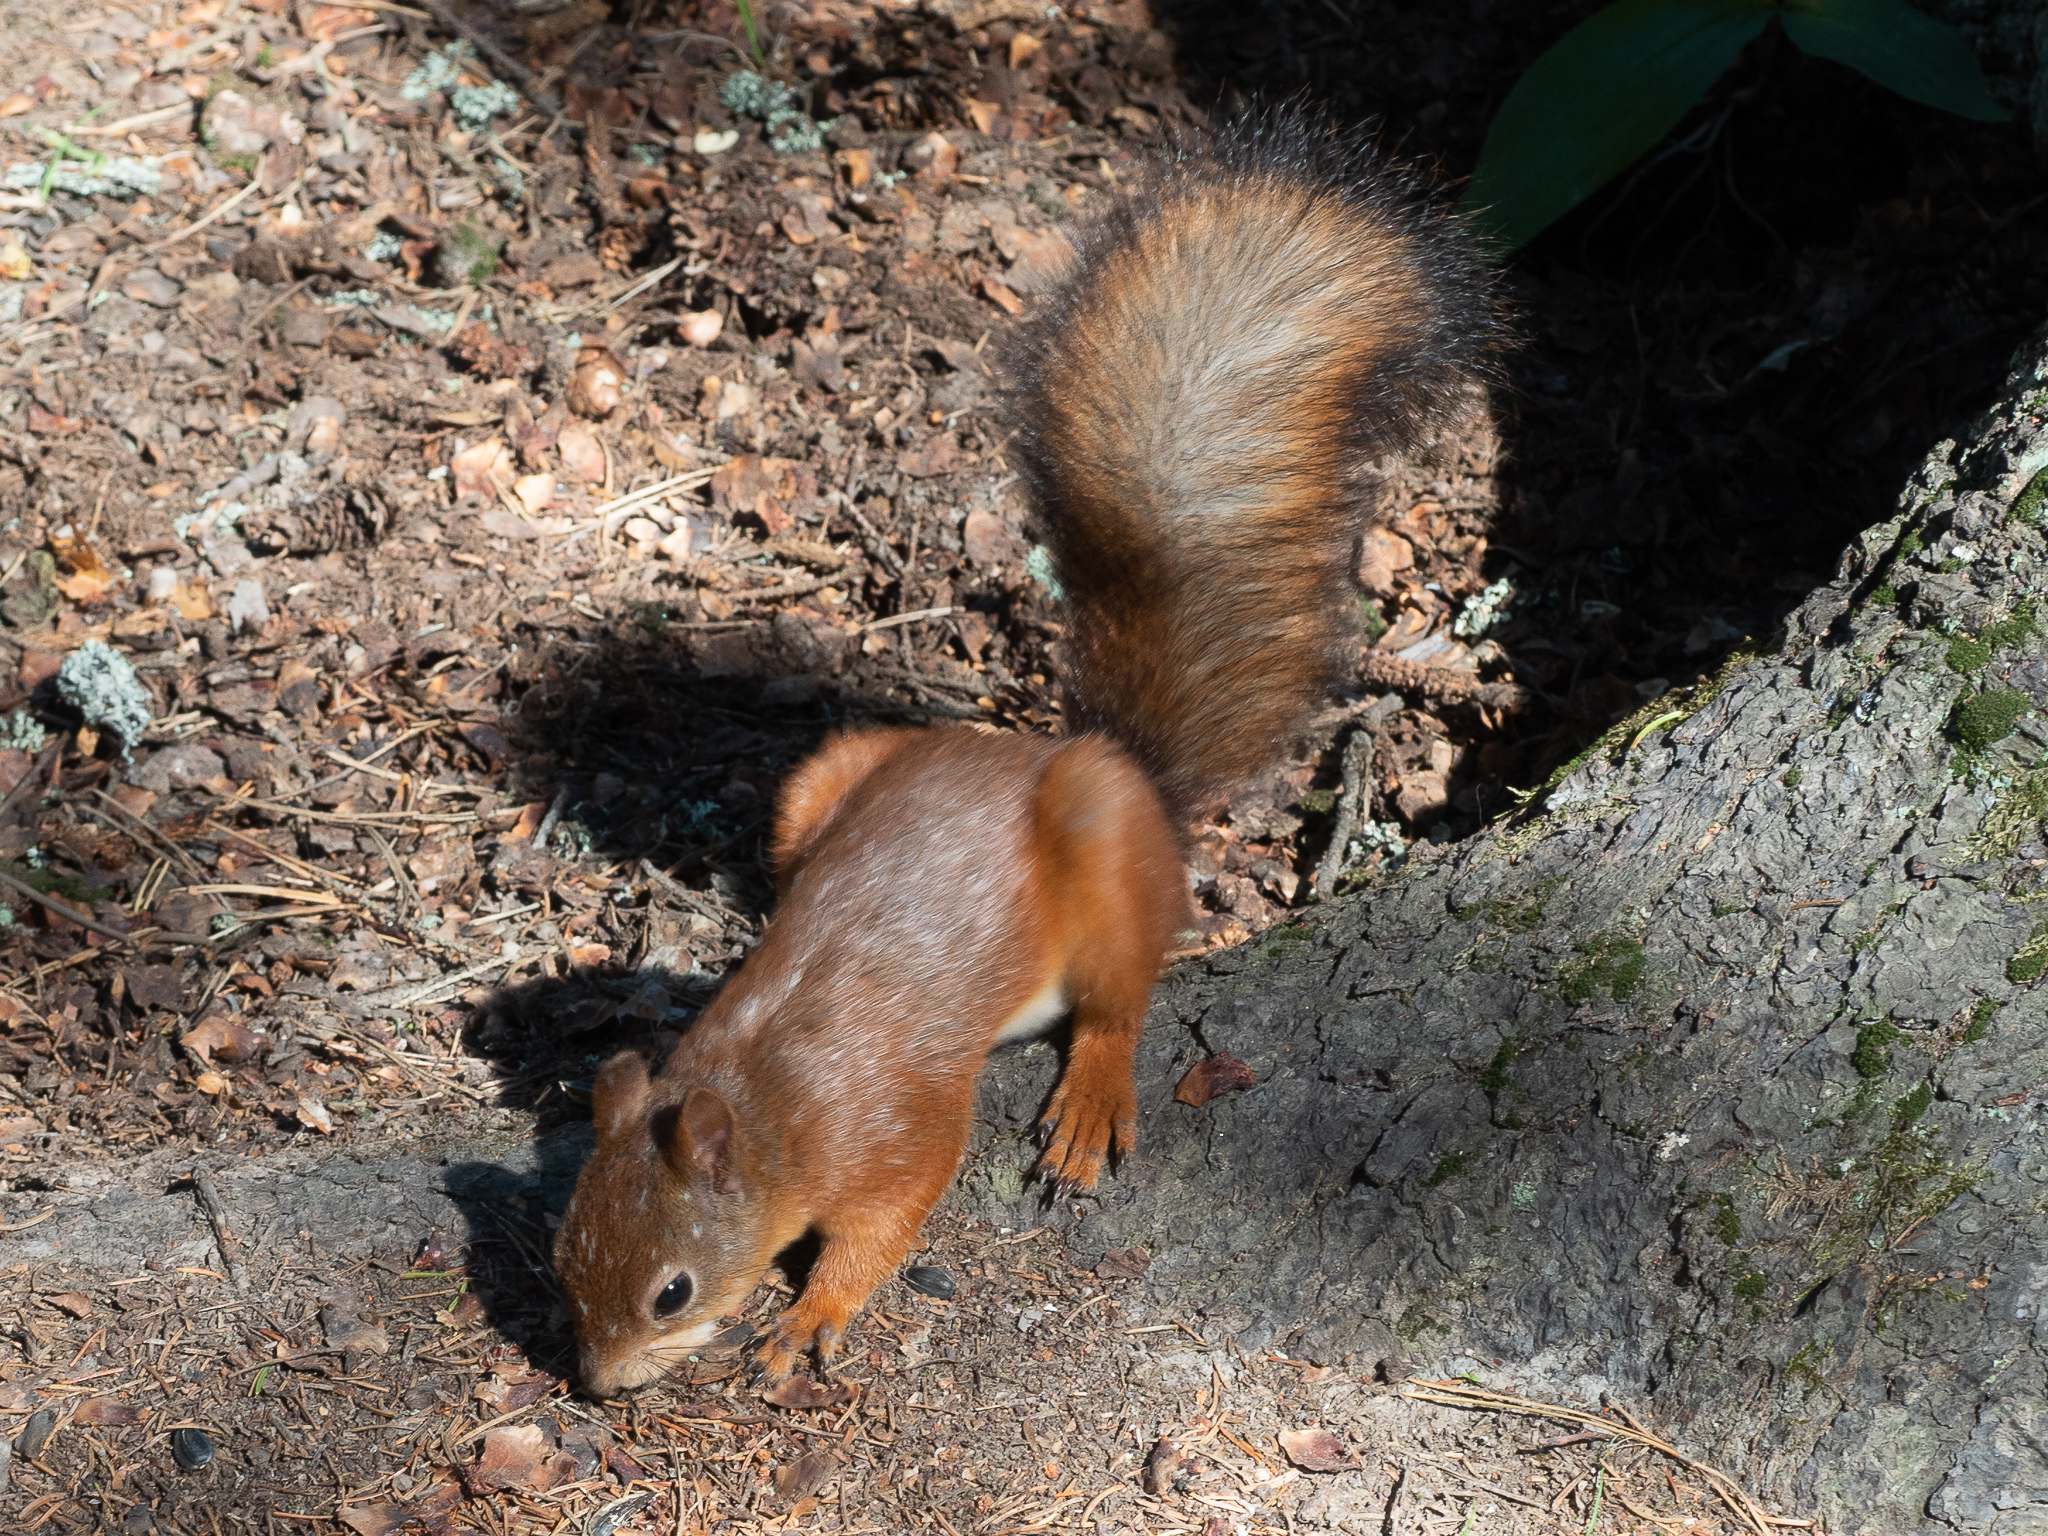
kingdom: Animalia
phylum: Chordata
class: Mammalia
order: Rodentia
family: Sciuridae
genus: Sciurus
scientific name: Sciurus vulgaris
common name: Eurasian red squirrel
